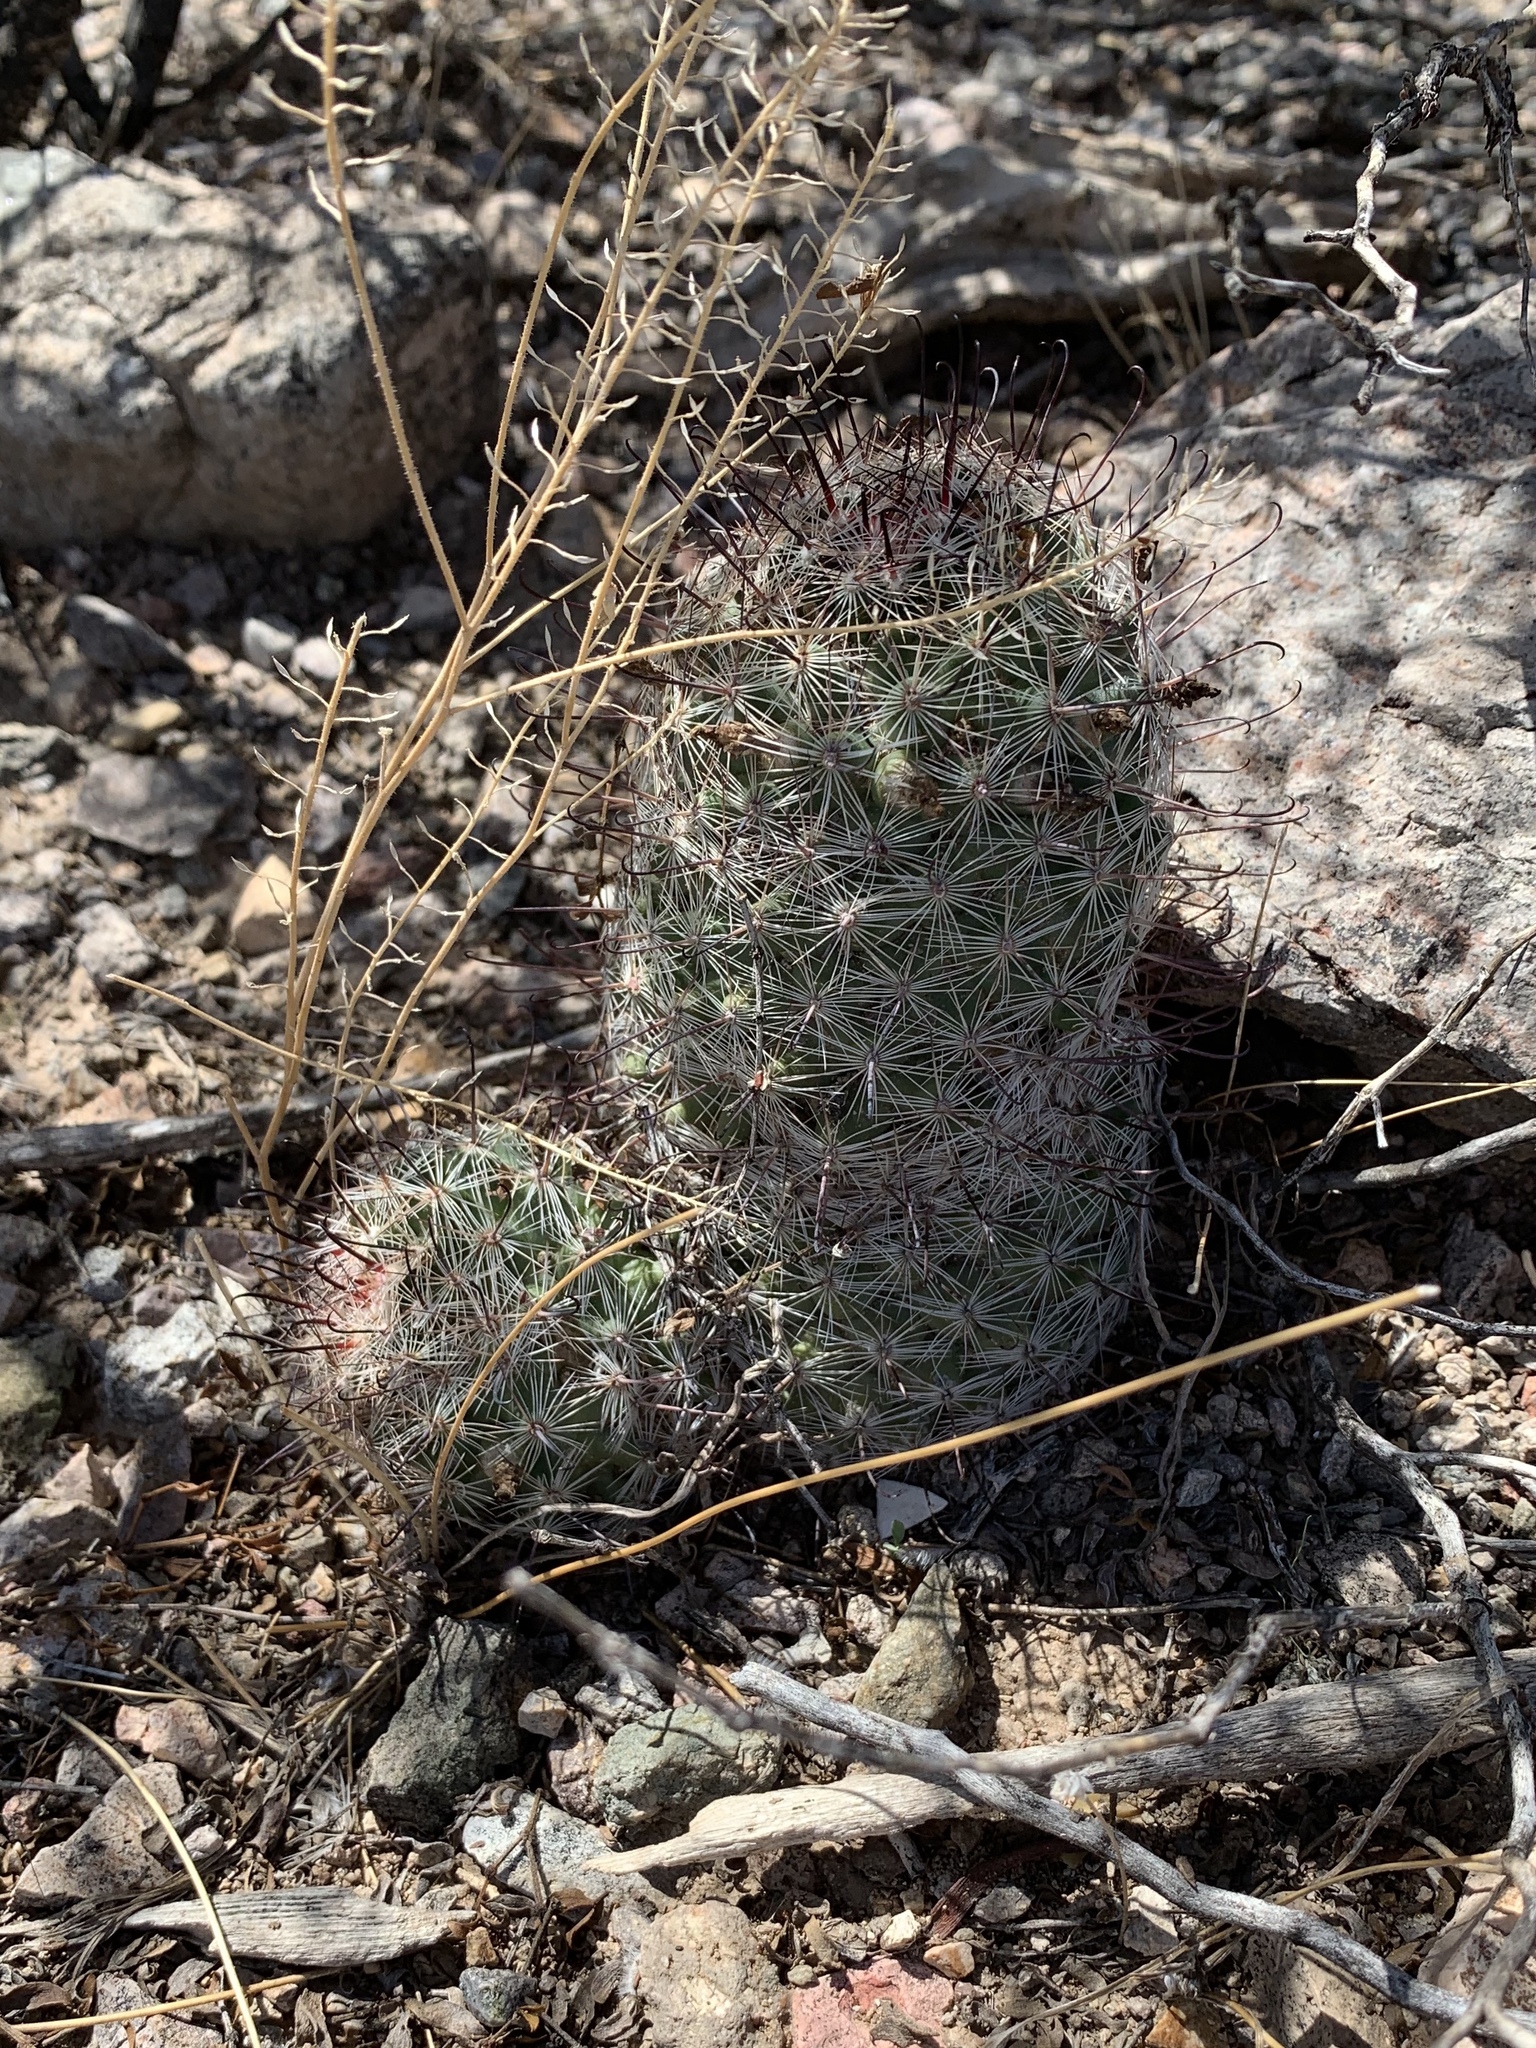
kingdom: Plantae
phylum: Tracheophyta
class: Magnoliopsida
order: Caryophyllales
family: Cactaceae
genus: Cochemiea
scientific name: Cochemiea grahamii
